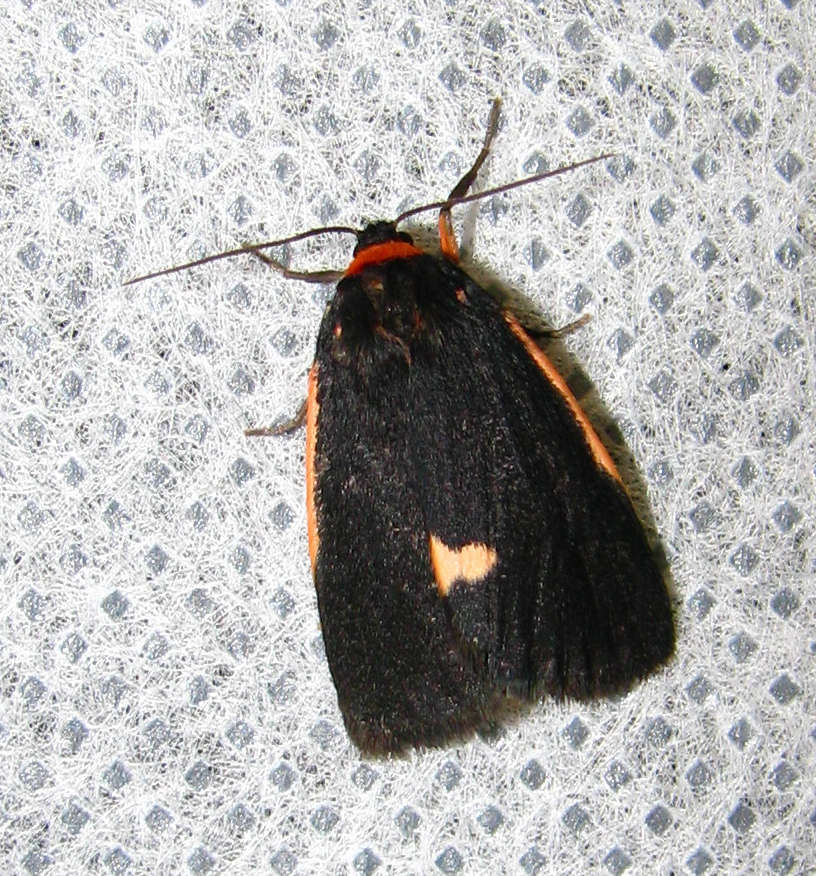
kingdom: Animalia
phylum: Arthropoda
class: Insecta
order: Lepidoptera
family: Erebidae
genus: Castulo
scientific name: Castulo doubledayi
